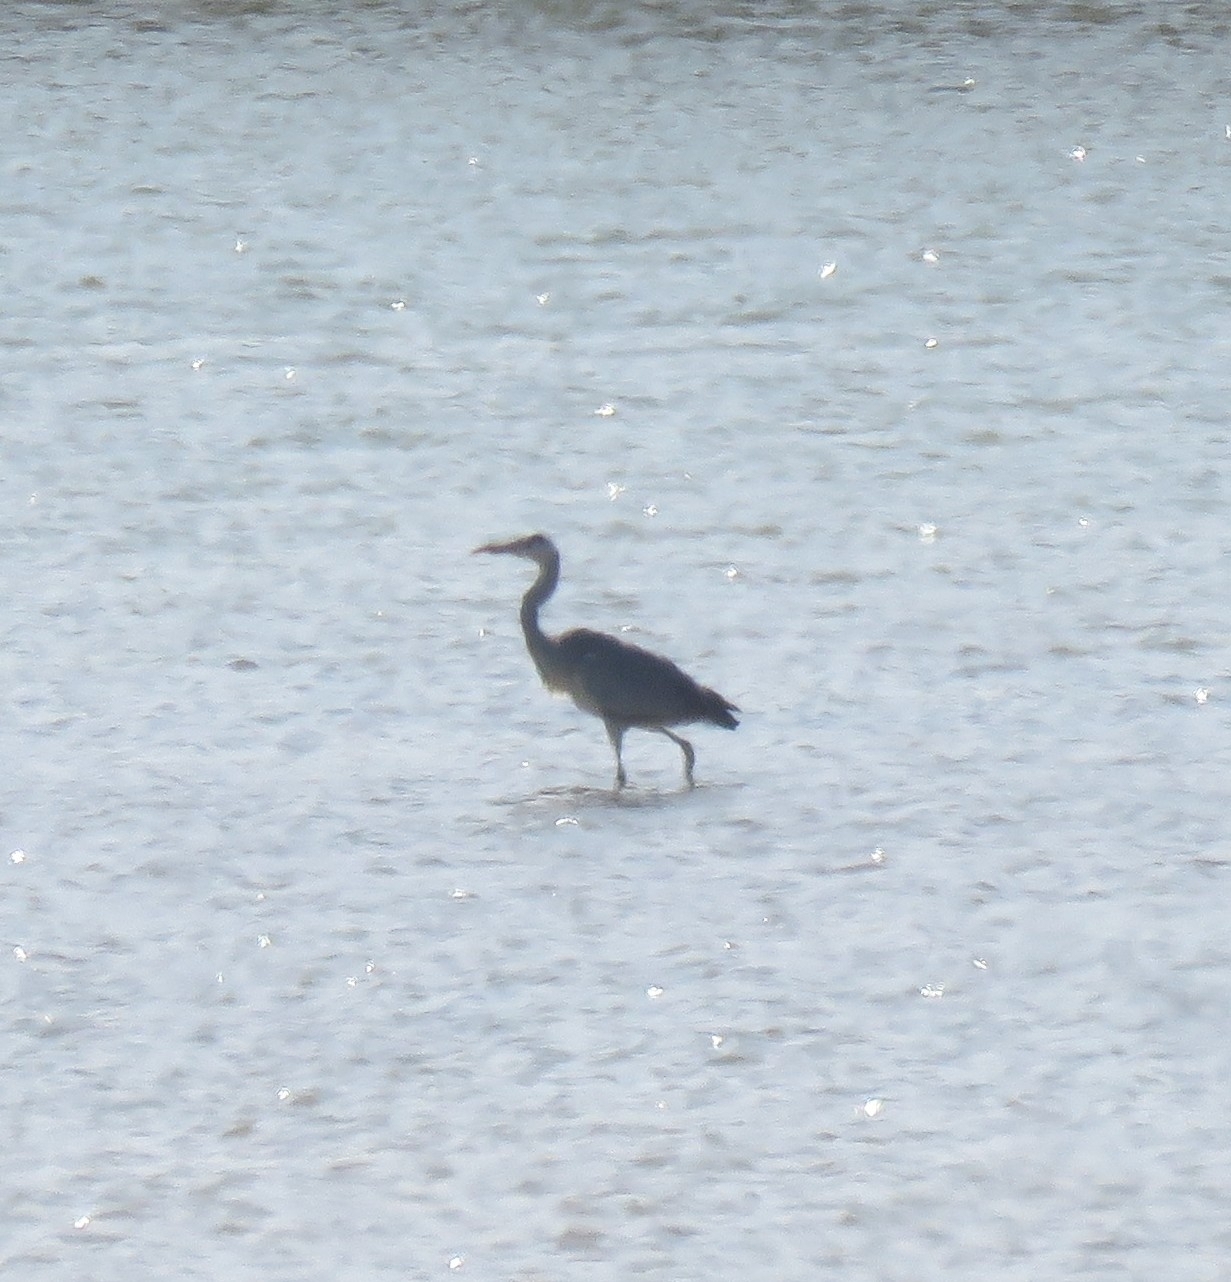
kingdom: Animalia
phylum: Chordata
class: Aves
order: Pelecaniformes
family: Ardeidae
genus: Ardea
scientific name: Ardea cinerea
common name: Grey heron
